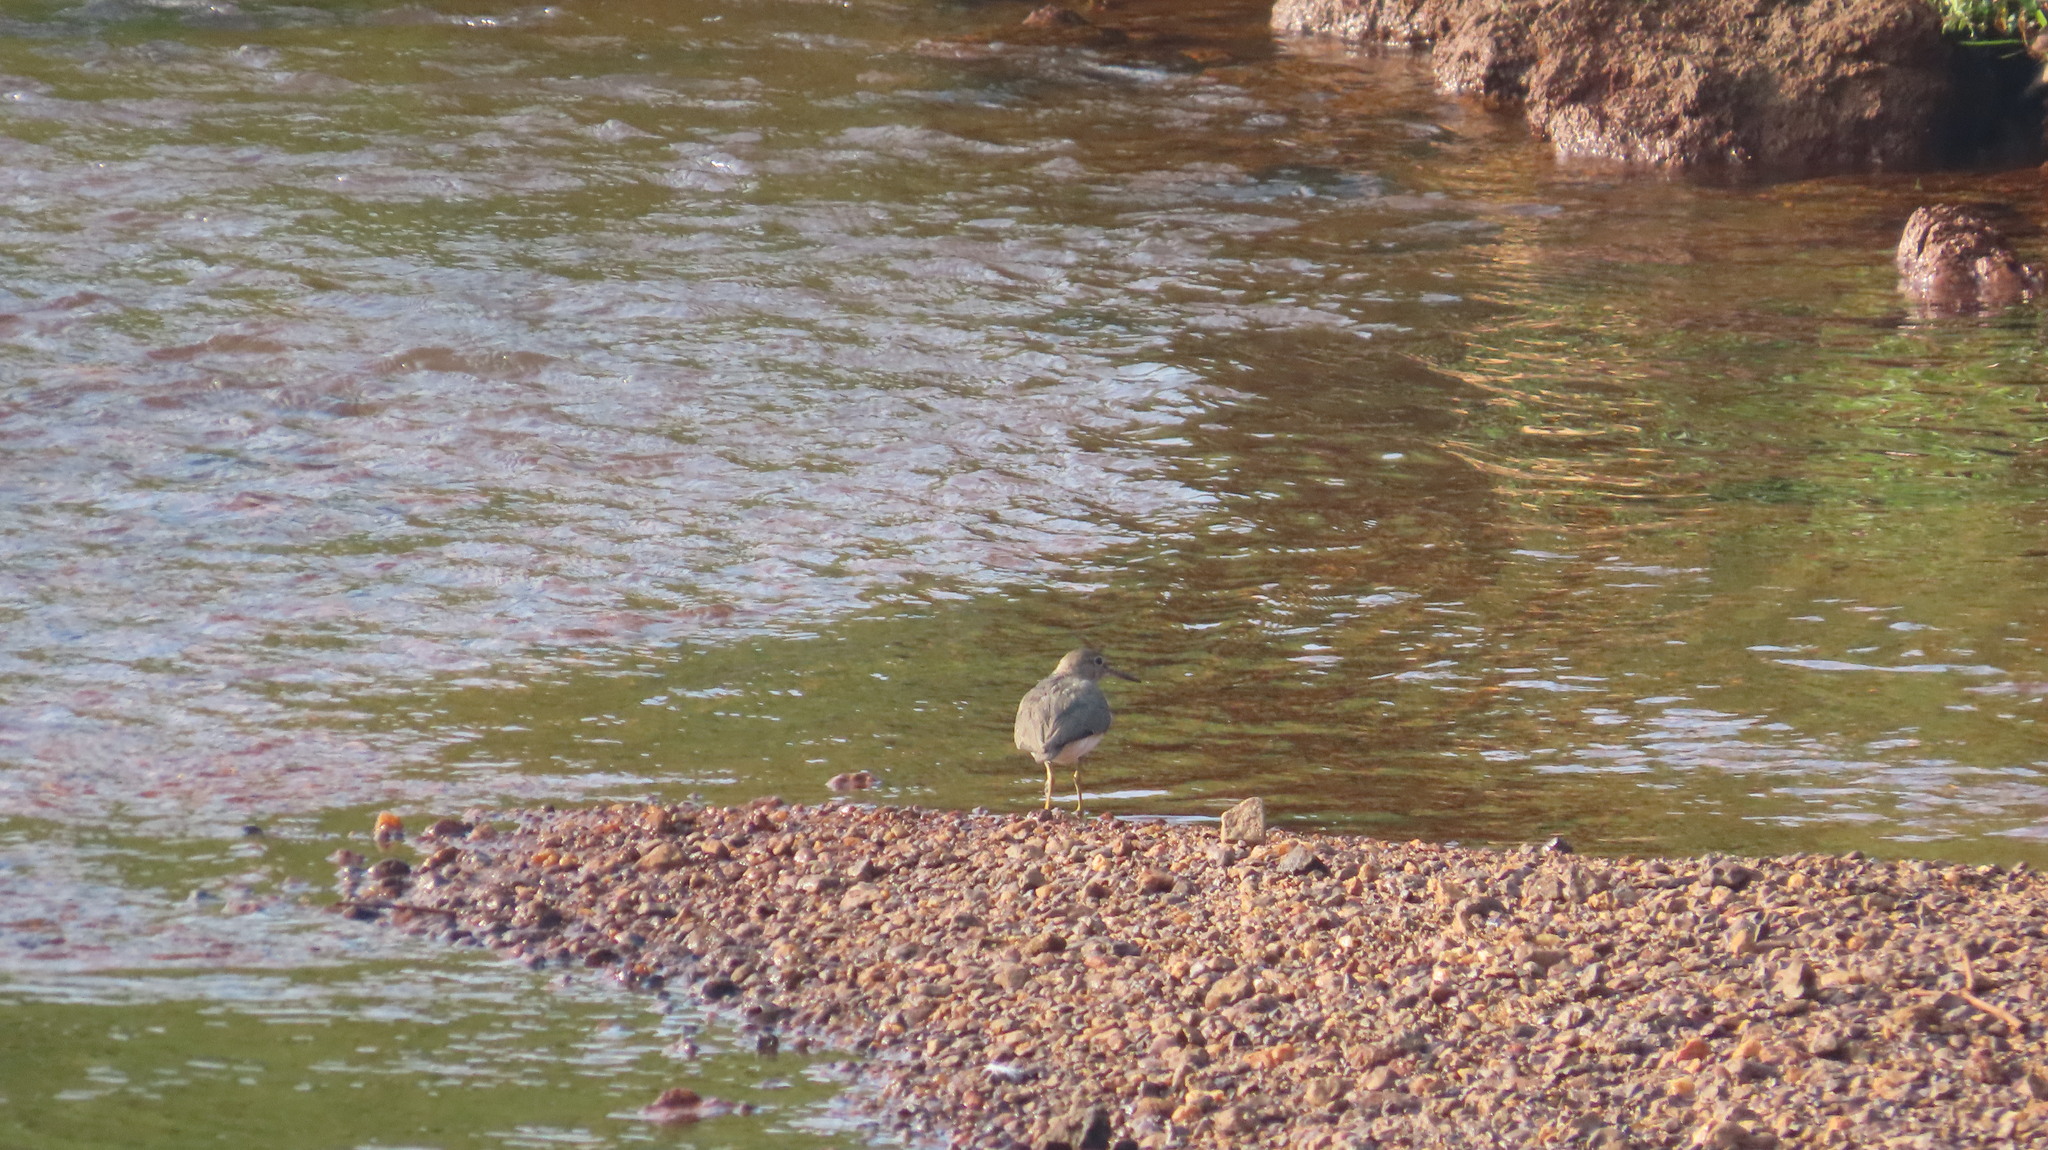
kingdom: Animalia
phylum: Chordata
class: Aves
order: Charadriiformes
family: Scolopacidae
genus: Actitis
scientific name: Actitis hypoleucos
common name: Common sandpiper
